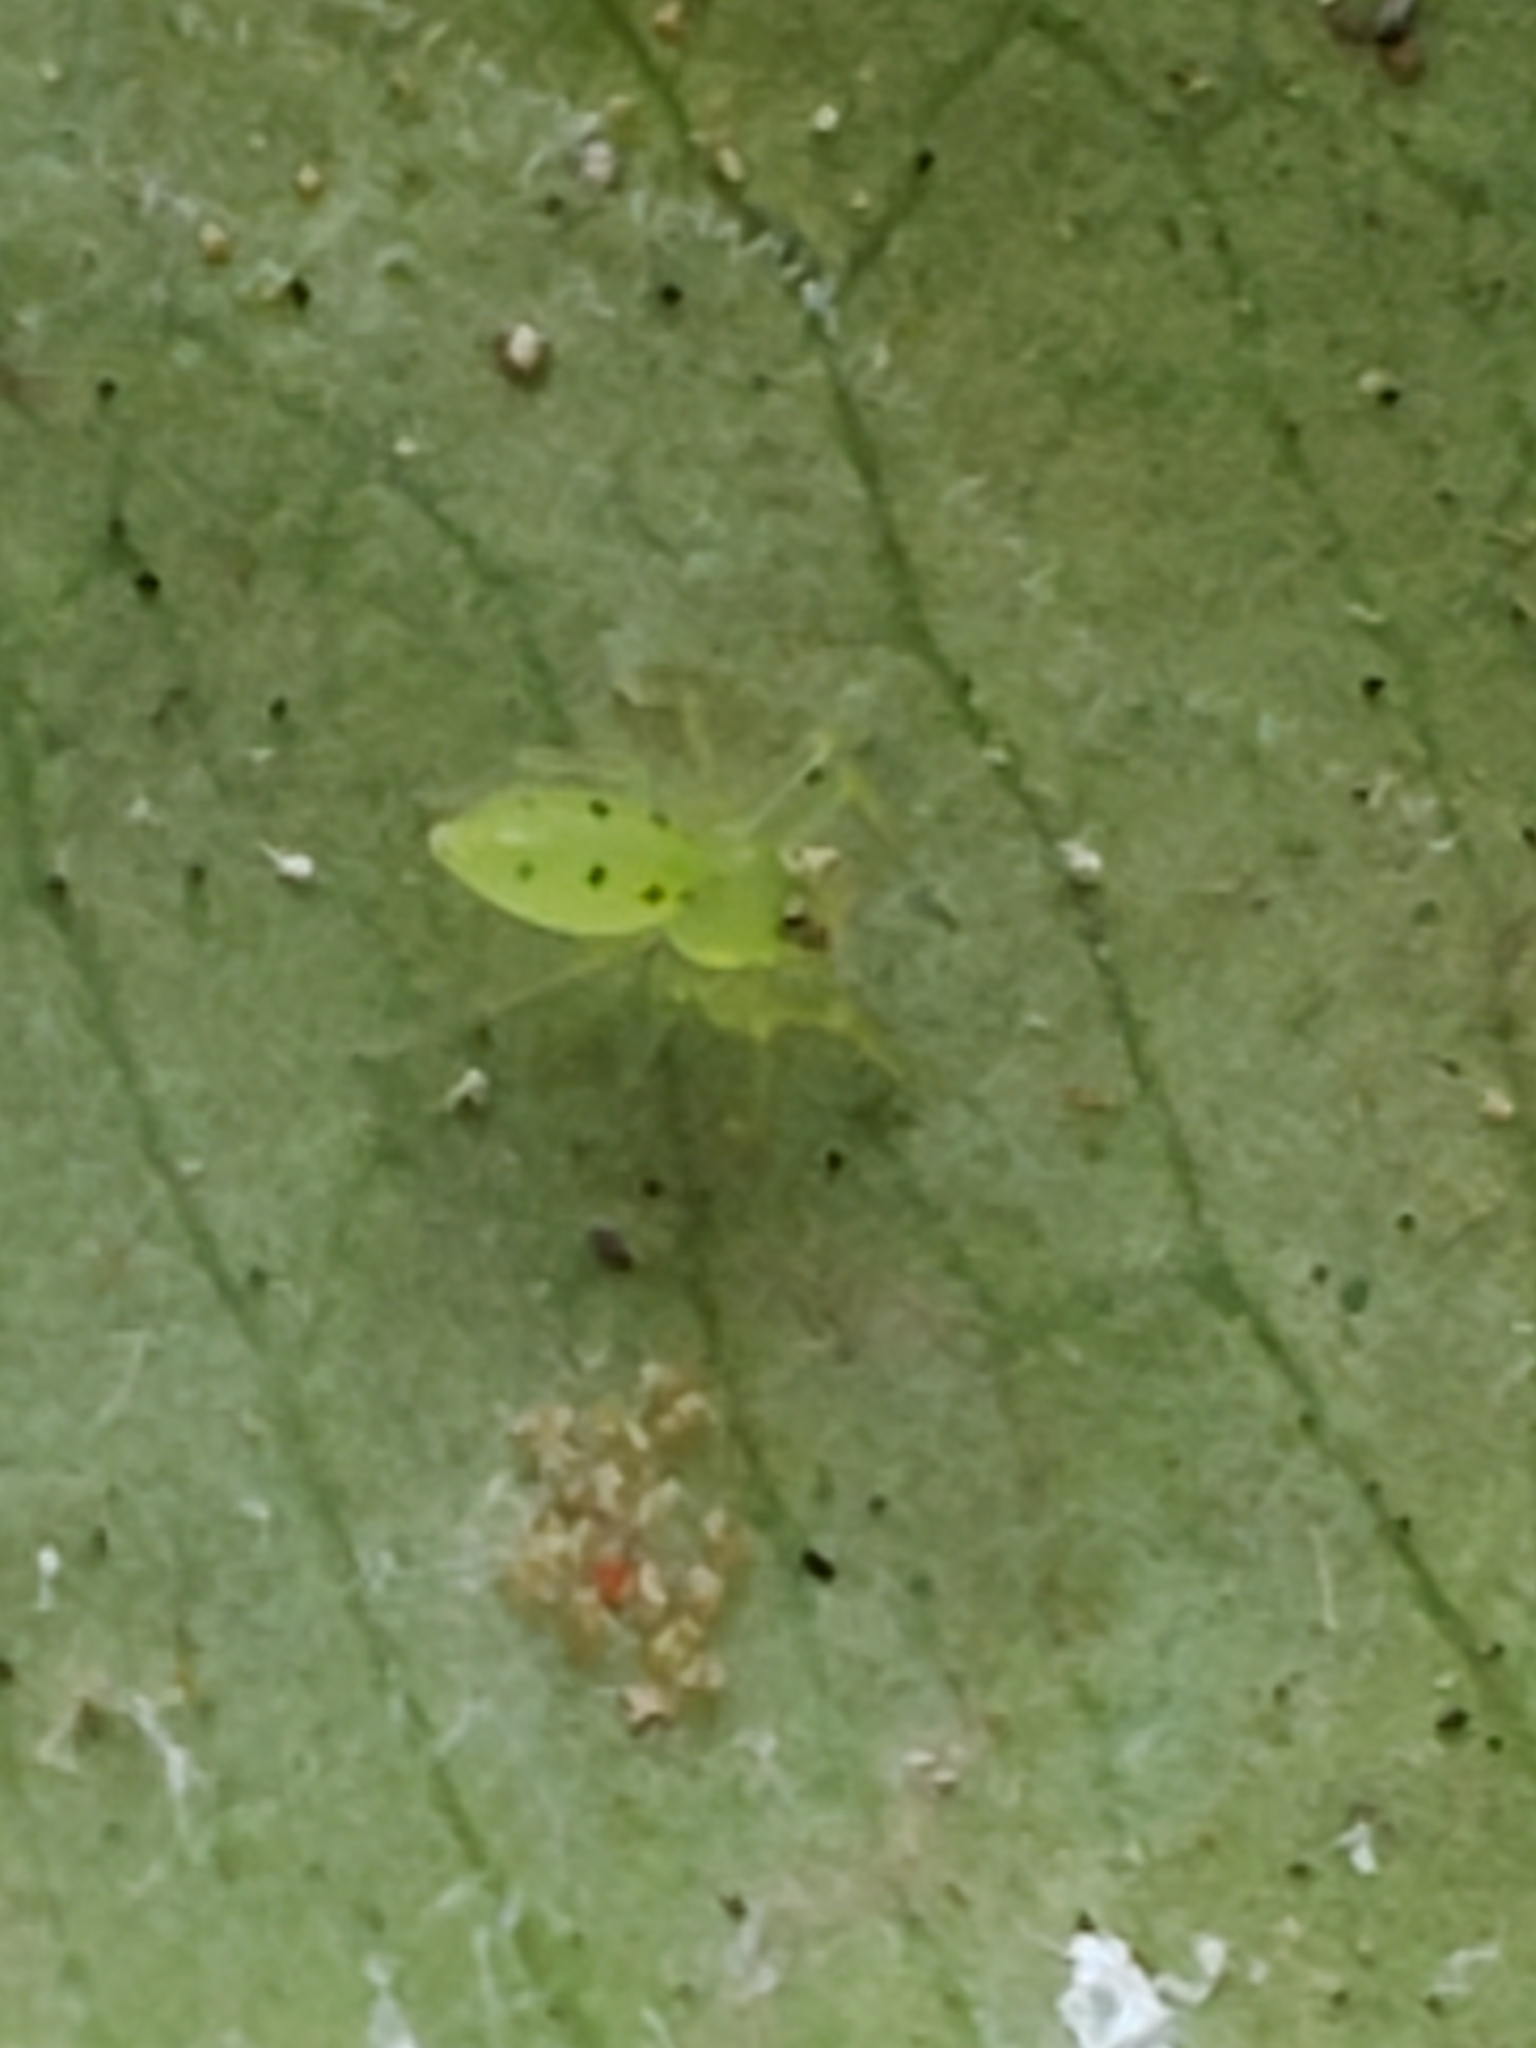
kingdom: Animalia
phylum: Arthropoda
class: Arachnida
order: Araneae
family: Salticidae
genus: Lyssomanes
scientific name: Lyssomanes viridis
